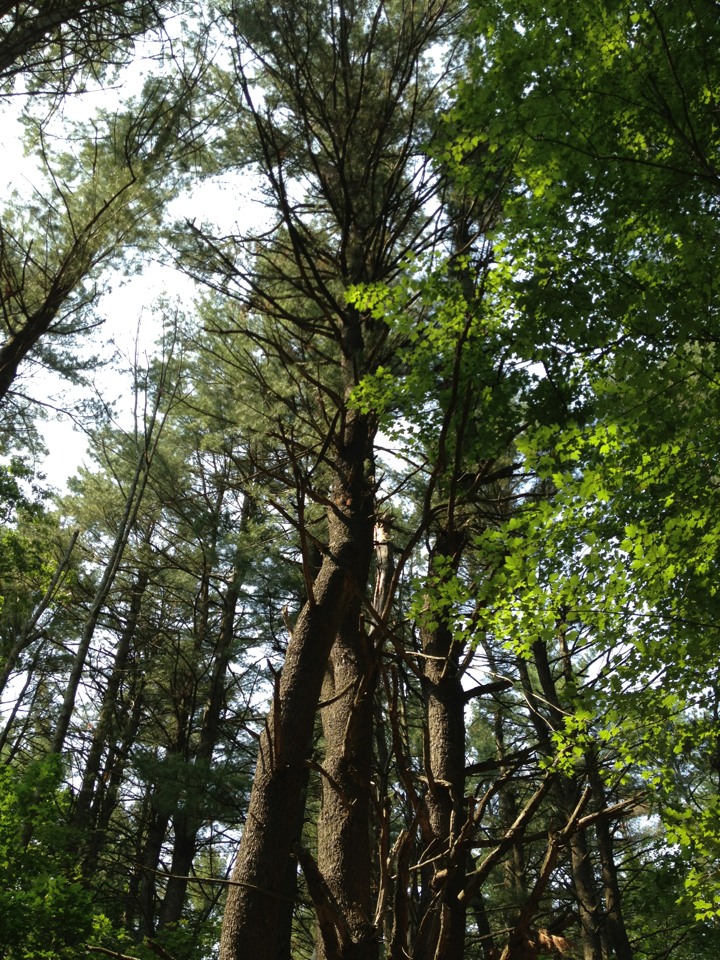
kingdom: Plantae
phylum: Tracheophyta
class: Pinopsida
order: Pinales
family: Pinaceae
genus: Pinus
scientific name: Pinus strobus
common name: Weymouth pine
